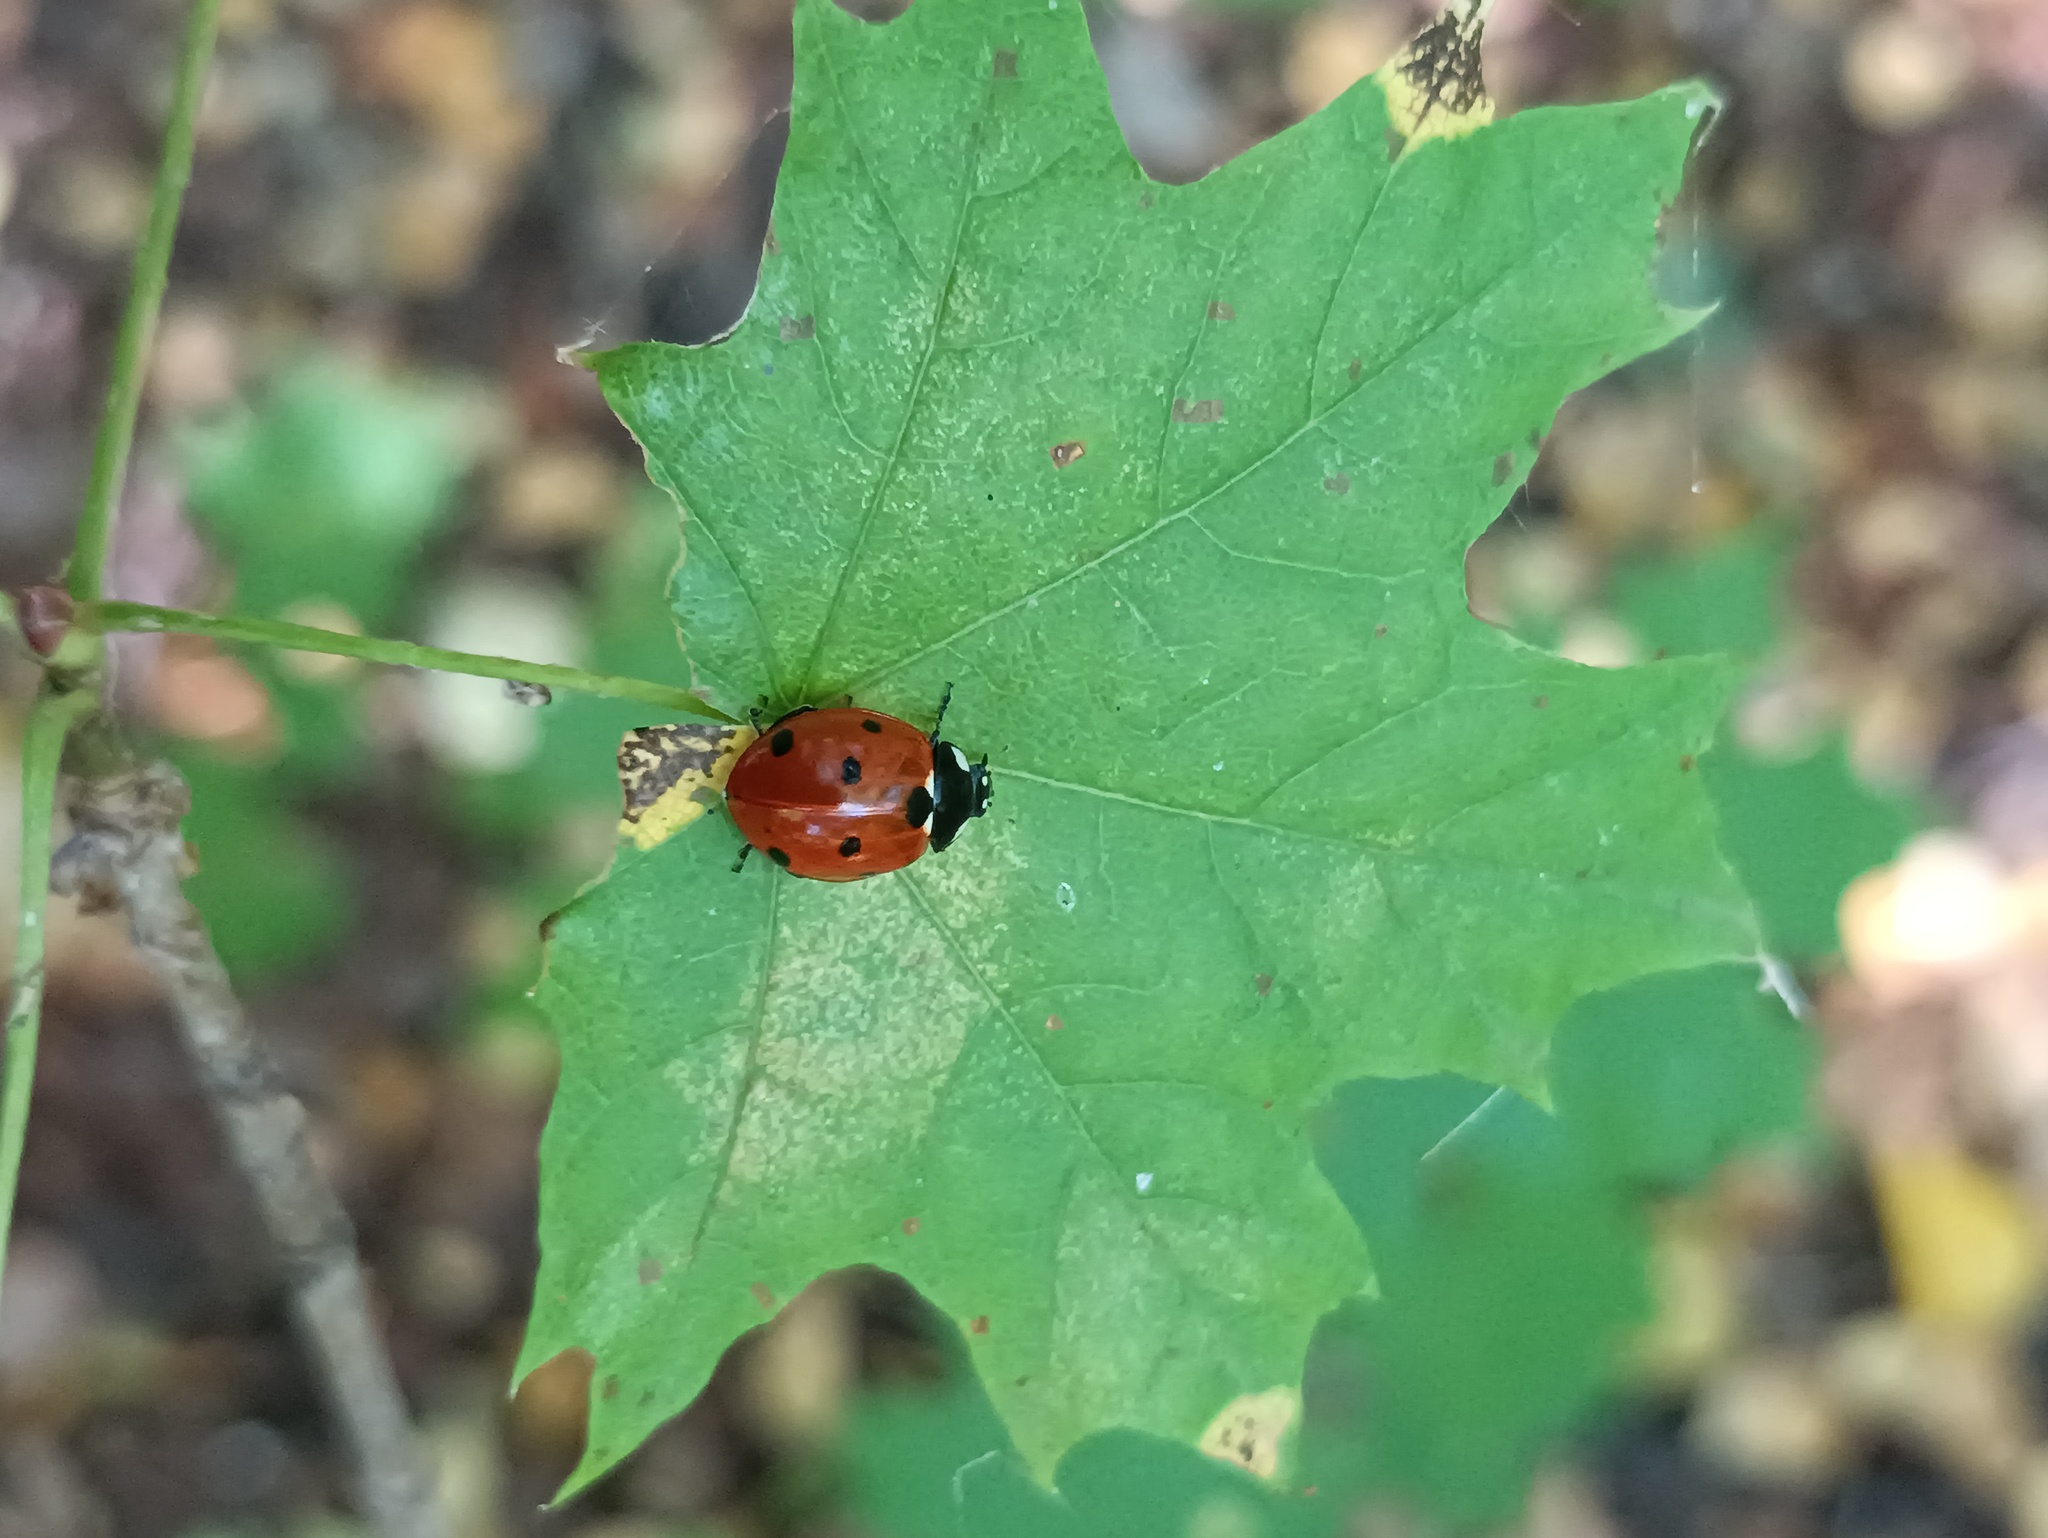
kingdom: Animalia
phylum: Arthropoda
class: Insecta
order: Coleoptera
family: Coccinellidae
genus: Coccinella
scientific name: Coccinella septempunctata
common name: Sevenspotted lady beetle
